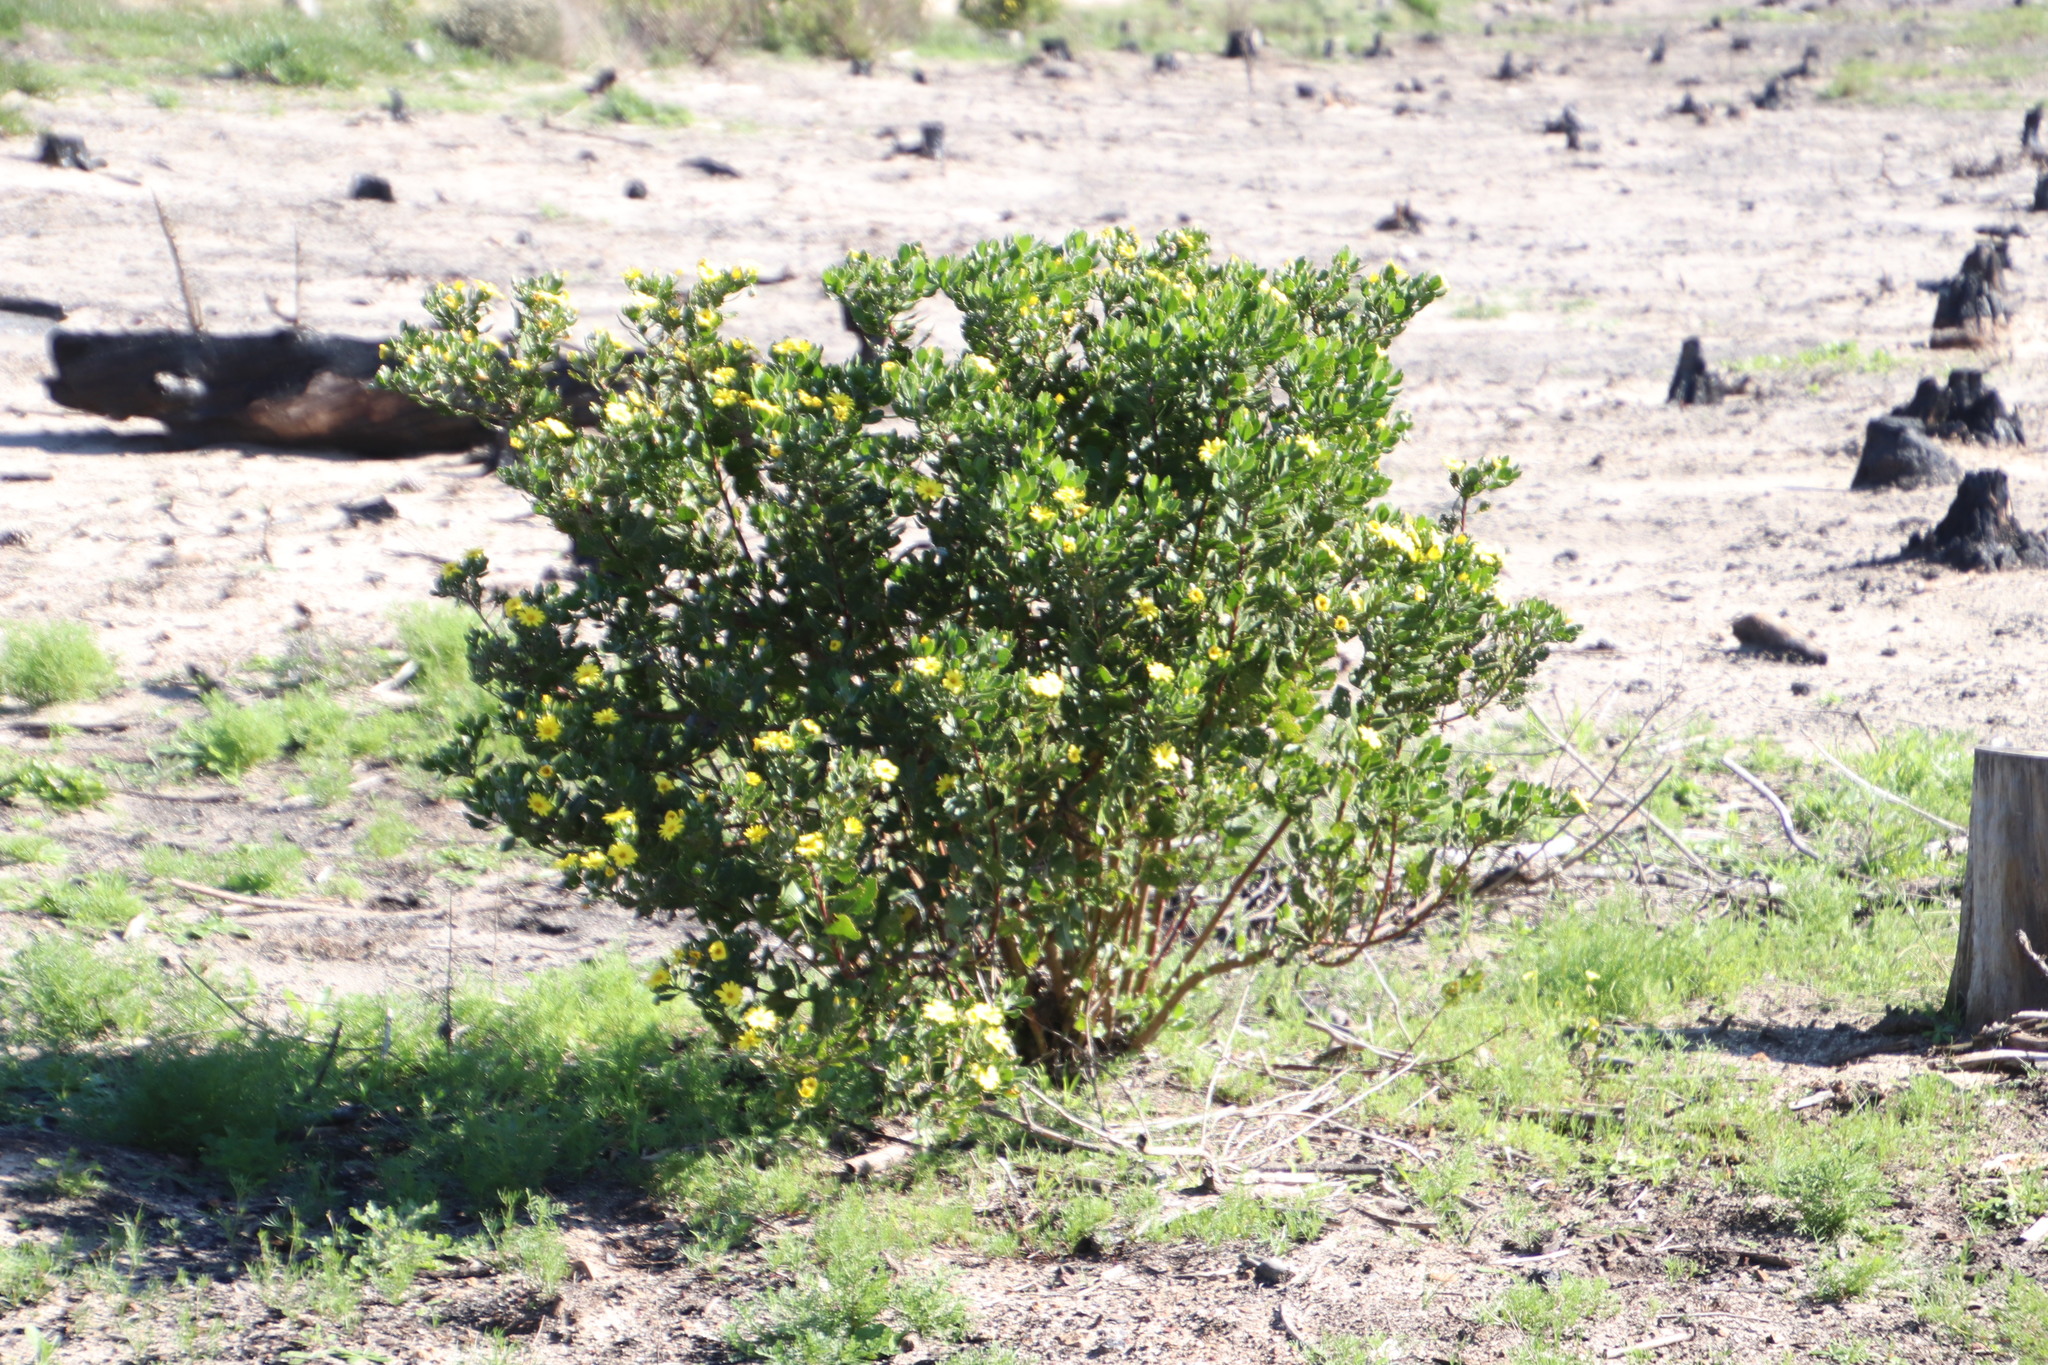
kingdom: Plantae
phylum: Tracheophyta
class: Magnoliopsida
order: Asterales
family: Asteraceae
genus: Osteospermum
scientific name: Osteospermum moniliferum
